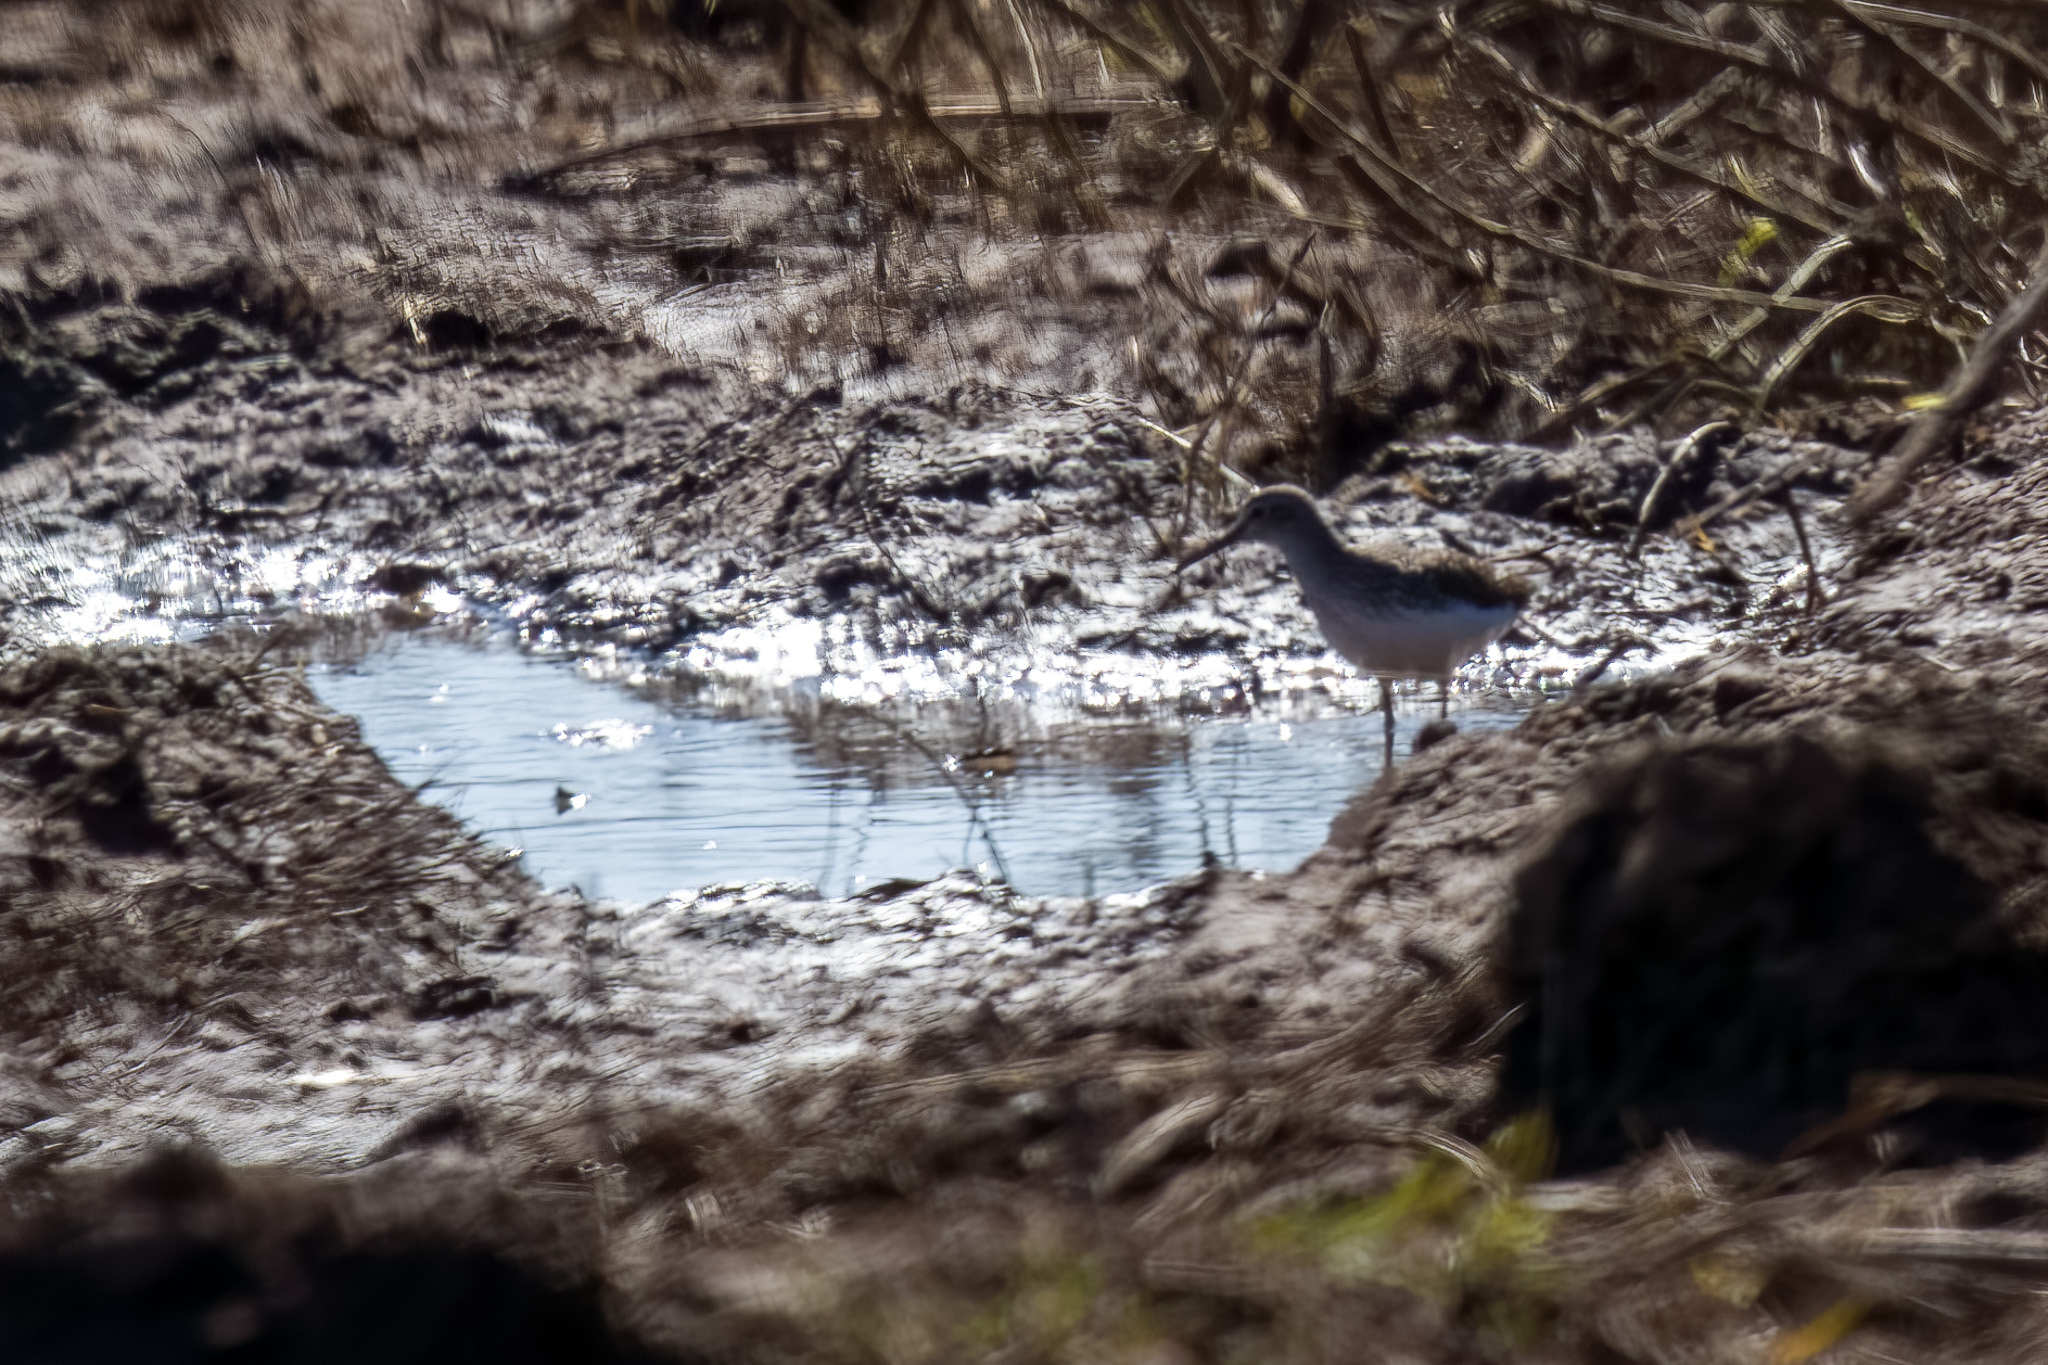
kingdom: Animalia
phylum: Chordata
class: Aves
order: Charadriiformes
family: Scolopacidae
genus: Tringa
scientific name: Tringa ochropus
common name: Green sandpiper
